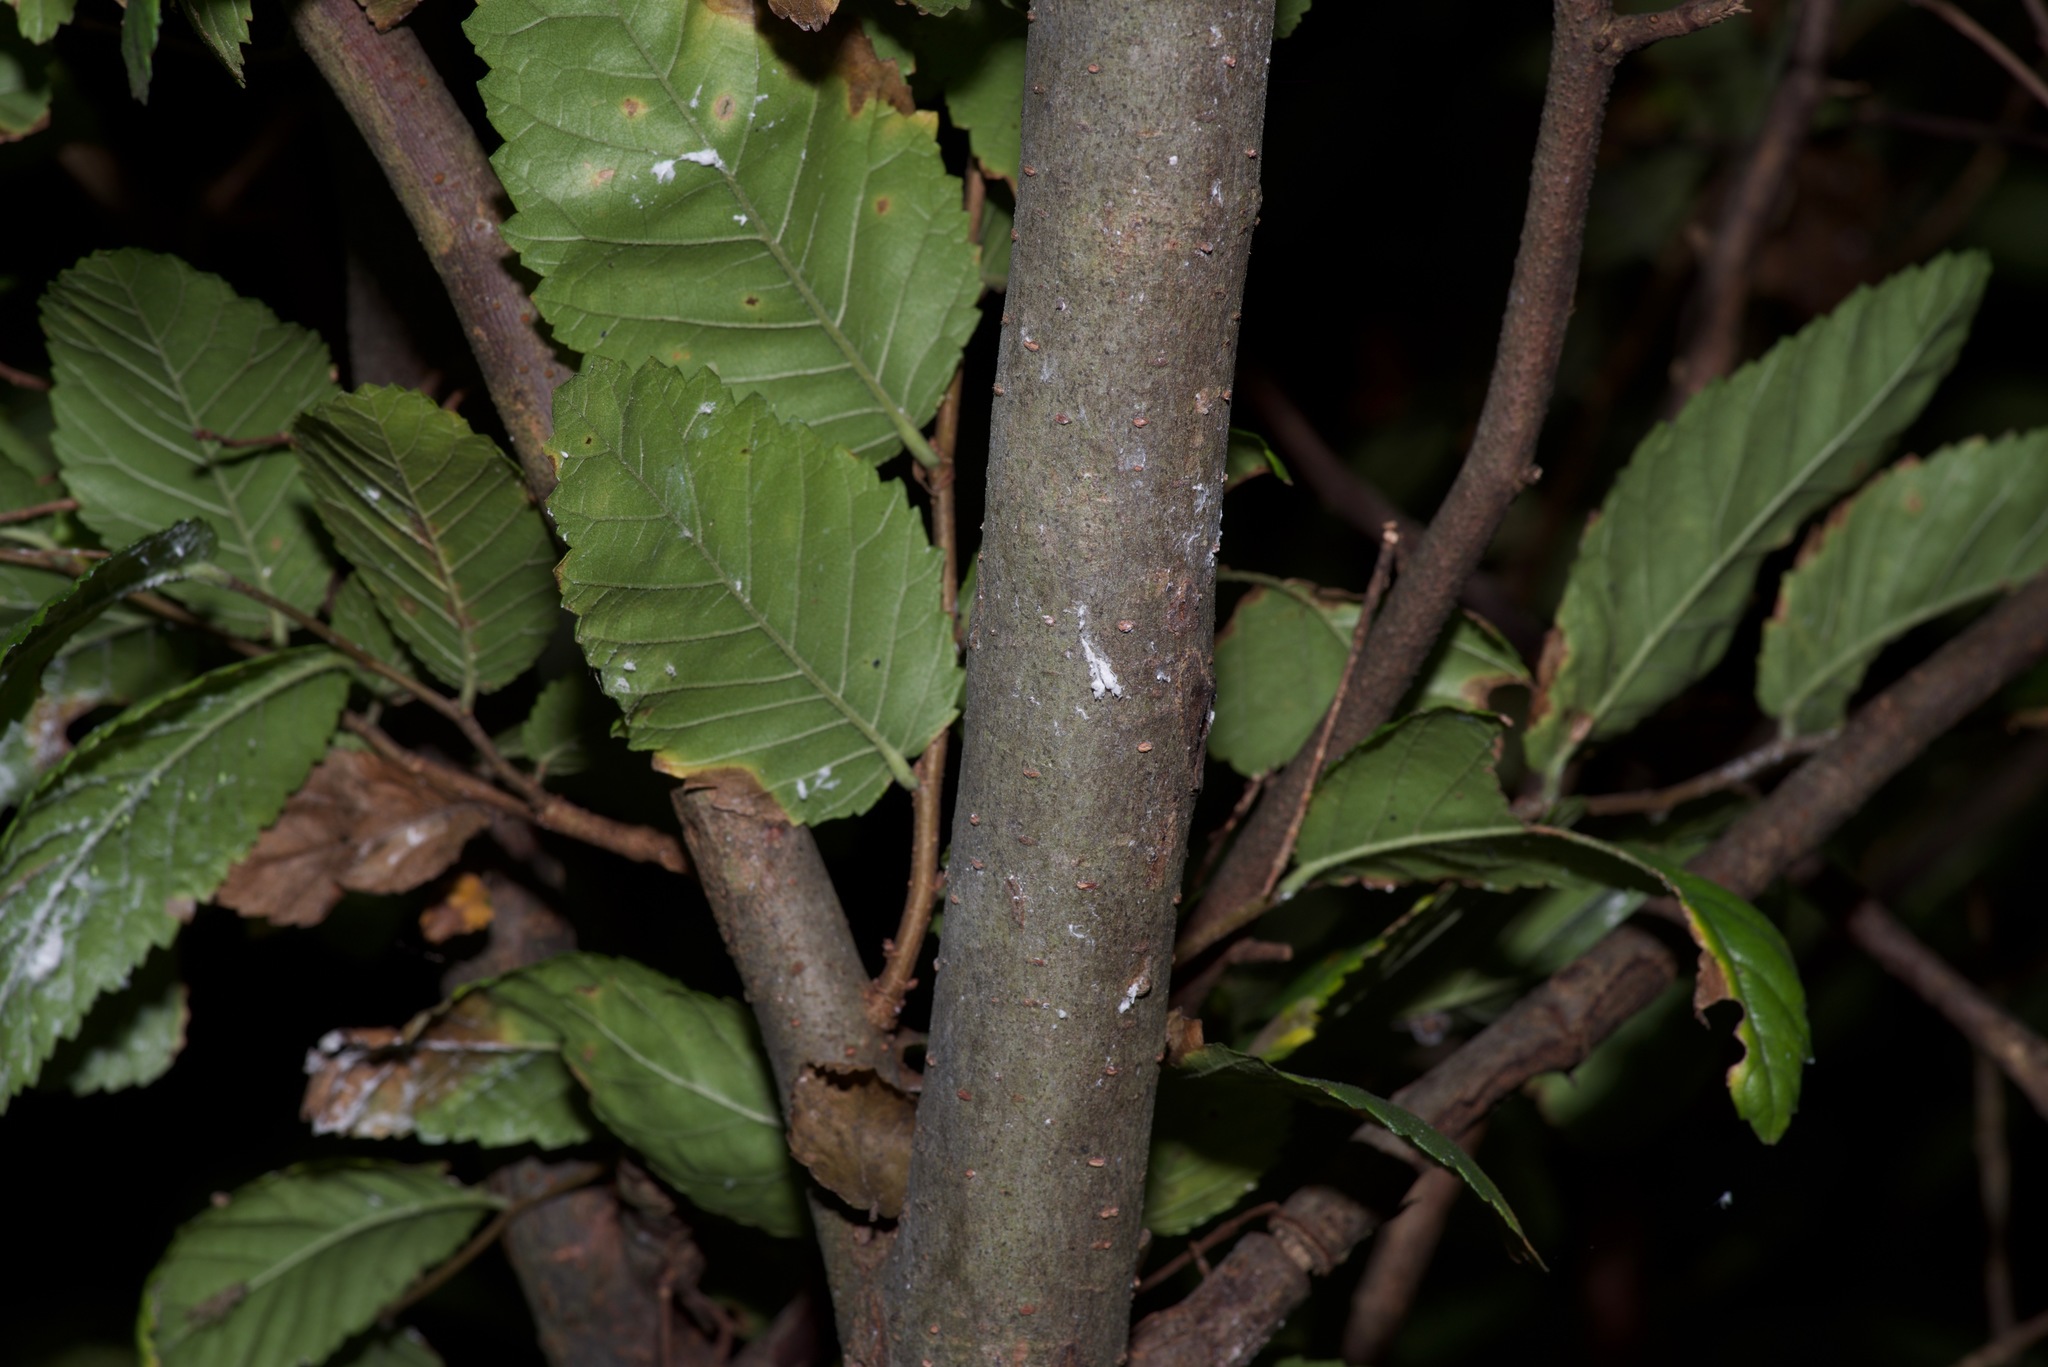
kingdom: Plantae
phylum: Tracheophyta
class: Magnoliopsida
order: Rosales
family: Ulmaceae
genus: Ulmus
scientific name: Ulmus crassifolia
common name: Basket elm
